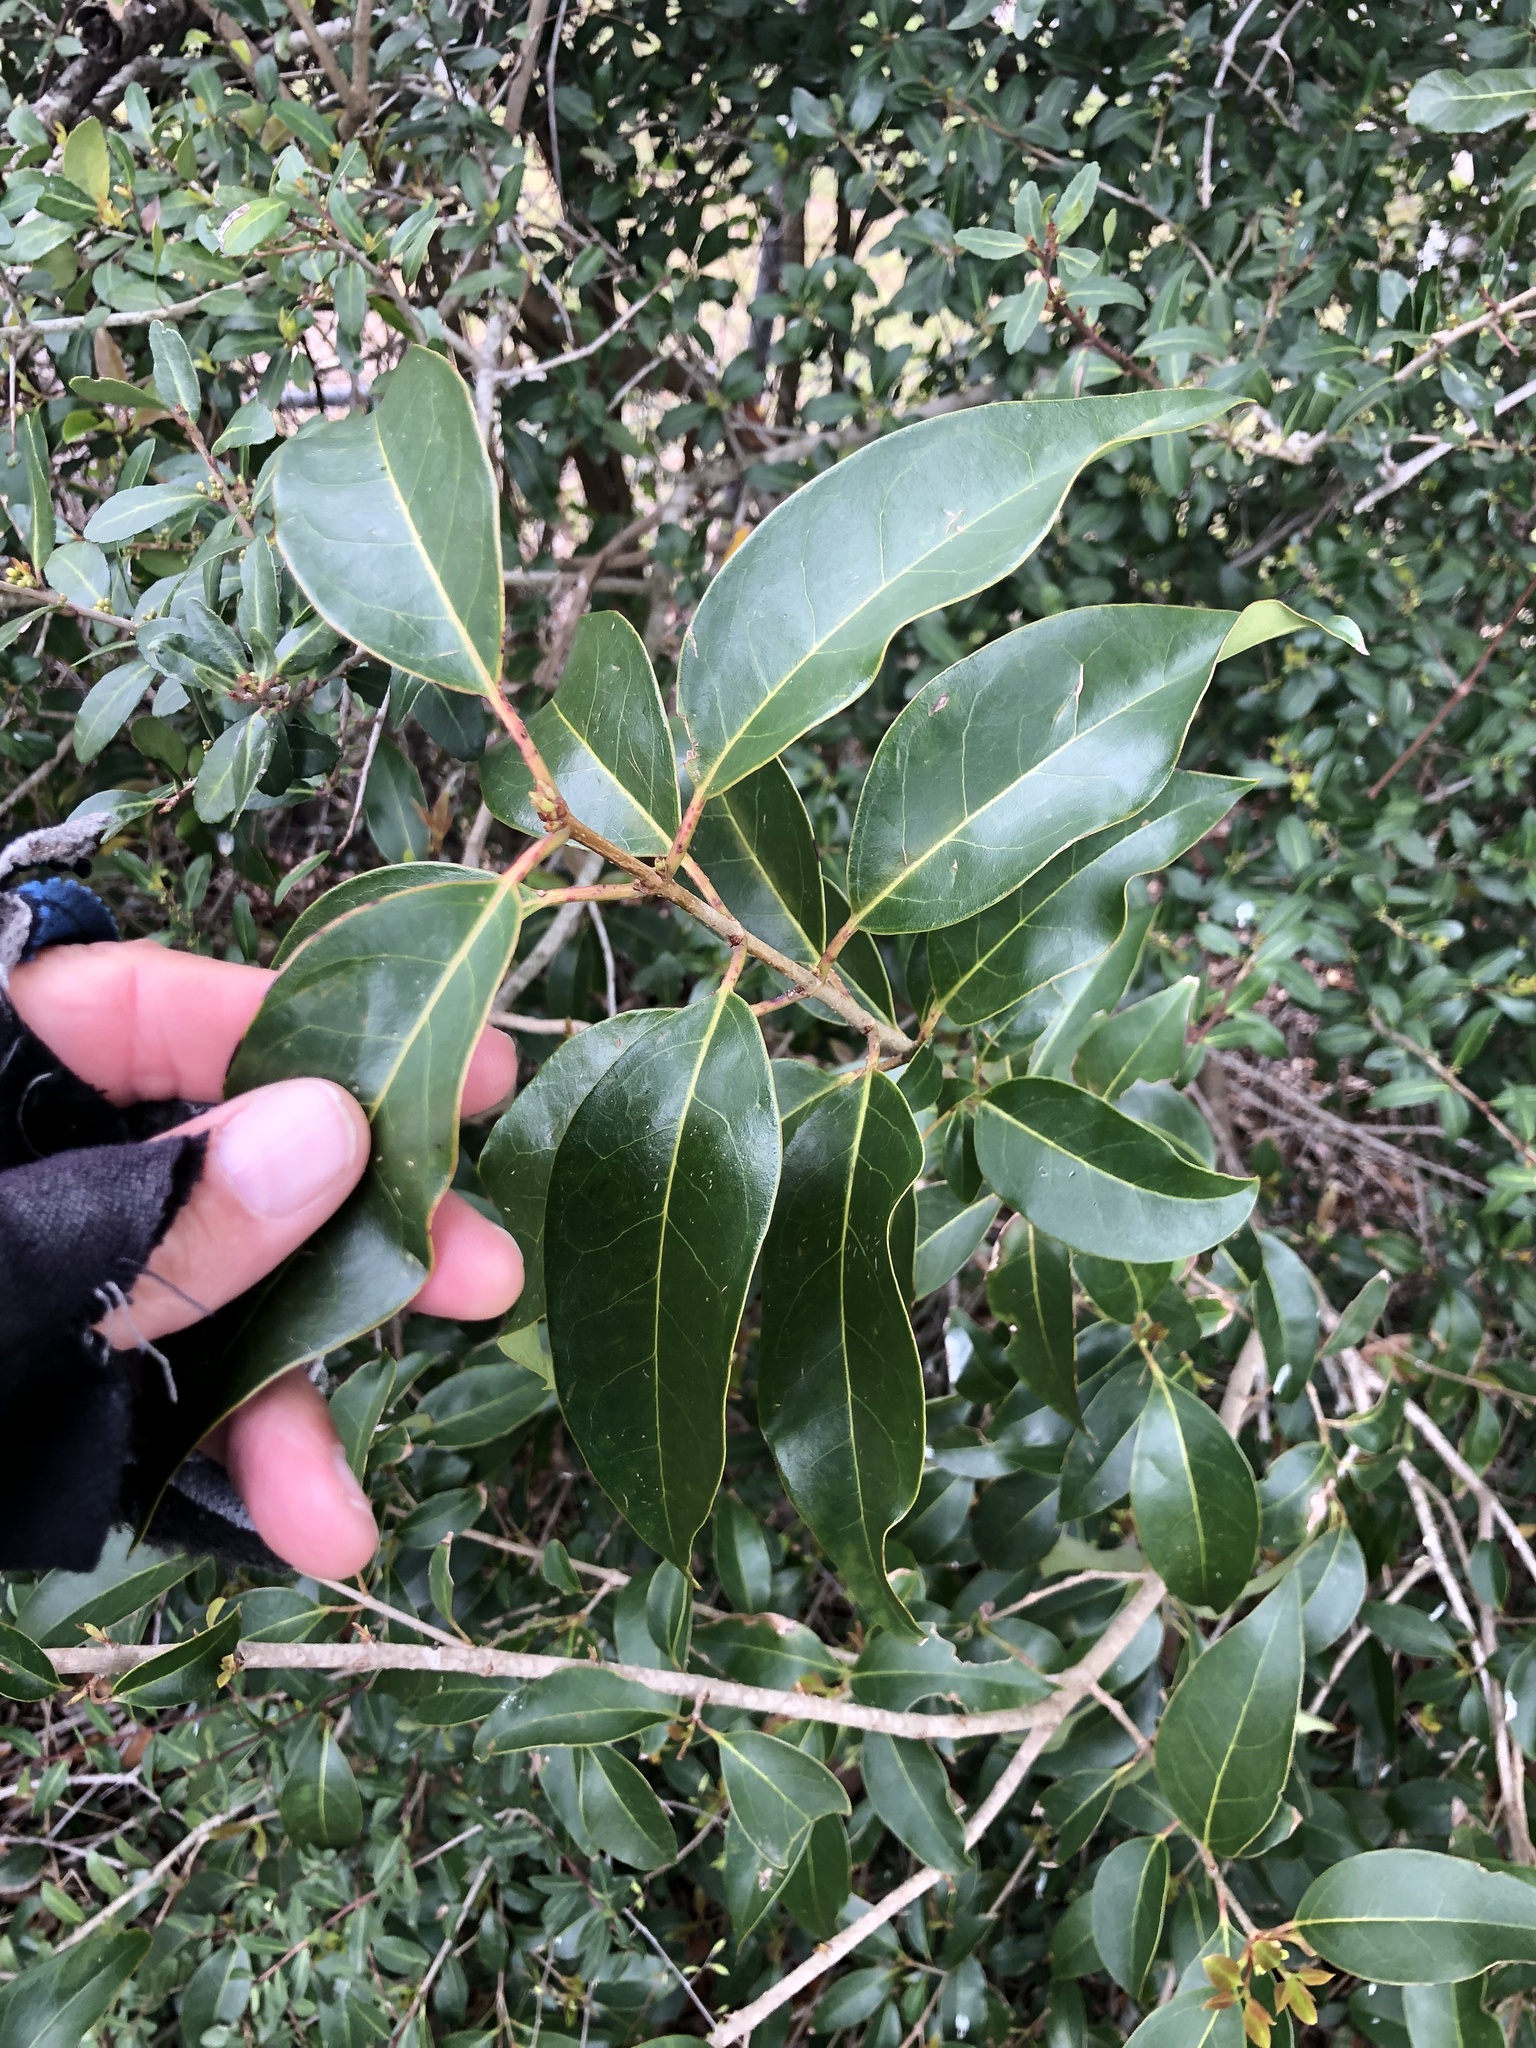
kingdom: Plantae
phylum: Tracheophyta
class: Magnoliopsida
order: Lamiales
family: Oleaceae
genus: Ligustrum
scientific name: Ligustrum lucidum
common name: Glossy privet
